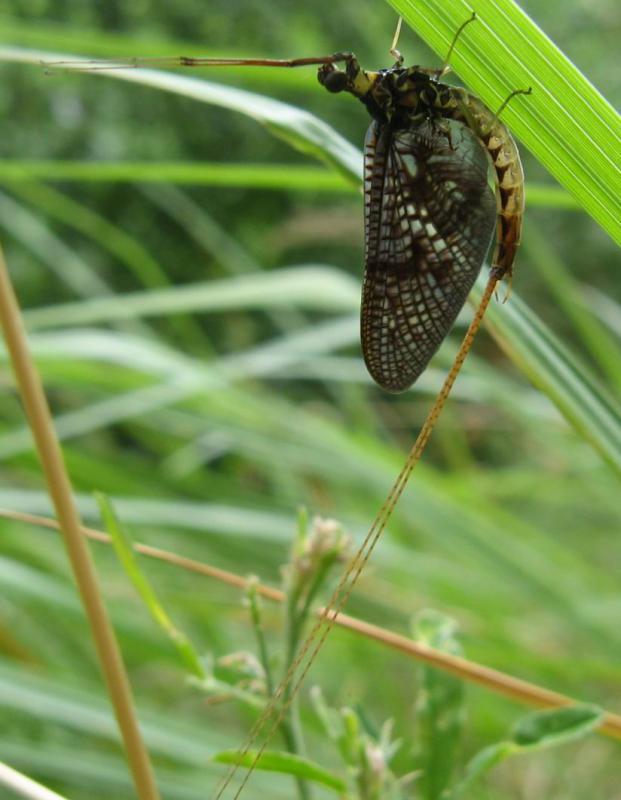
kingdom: Animalia
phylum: Arthropoda
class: Insecta
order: Ephemeroptera
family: Ephemeridae
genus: Ephemera
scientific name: Ephemera vulgata
